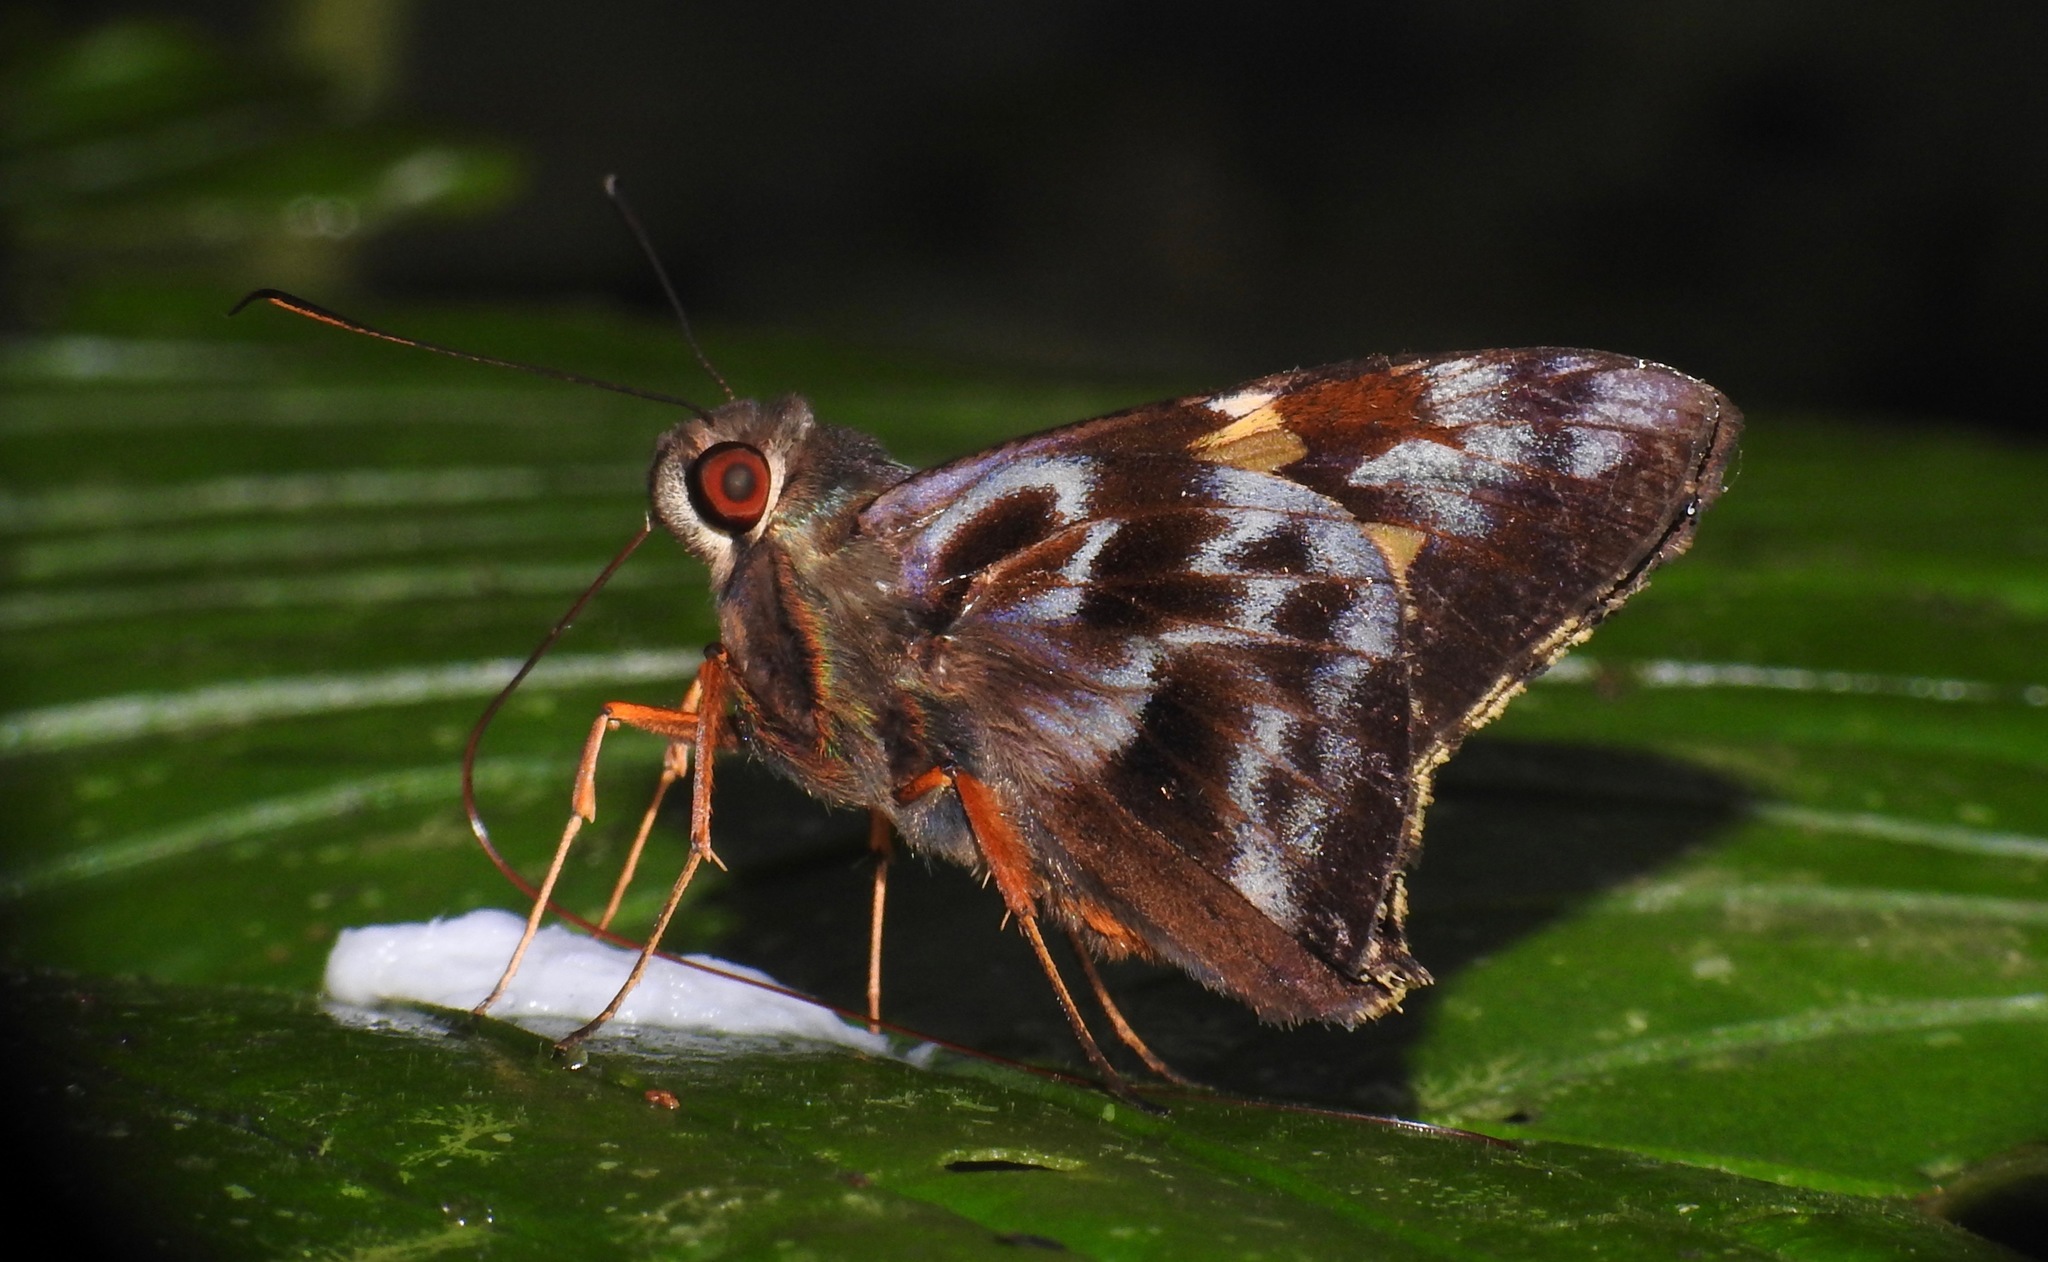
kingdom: Animalia
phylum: Arthropoda
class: Insecta
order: Lepidoptera
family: Hesperiidae
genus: Perichares
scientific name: Perichares philetes
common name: Green-backed ruby-eye
